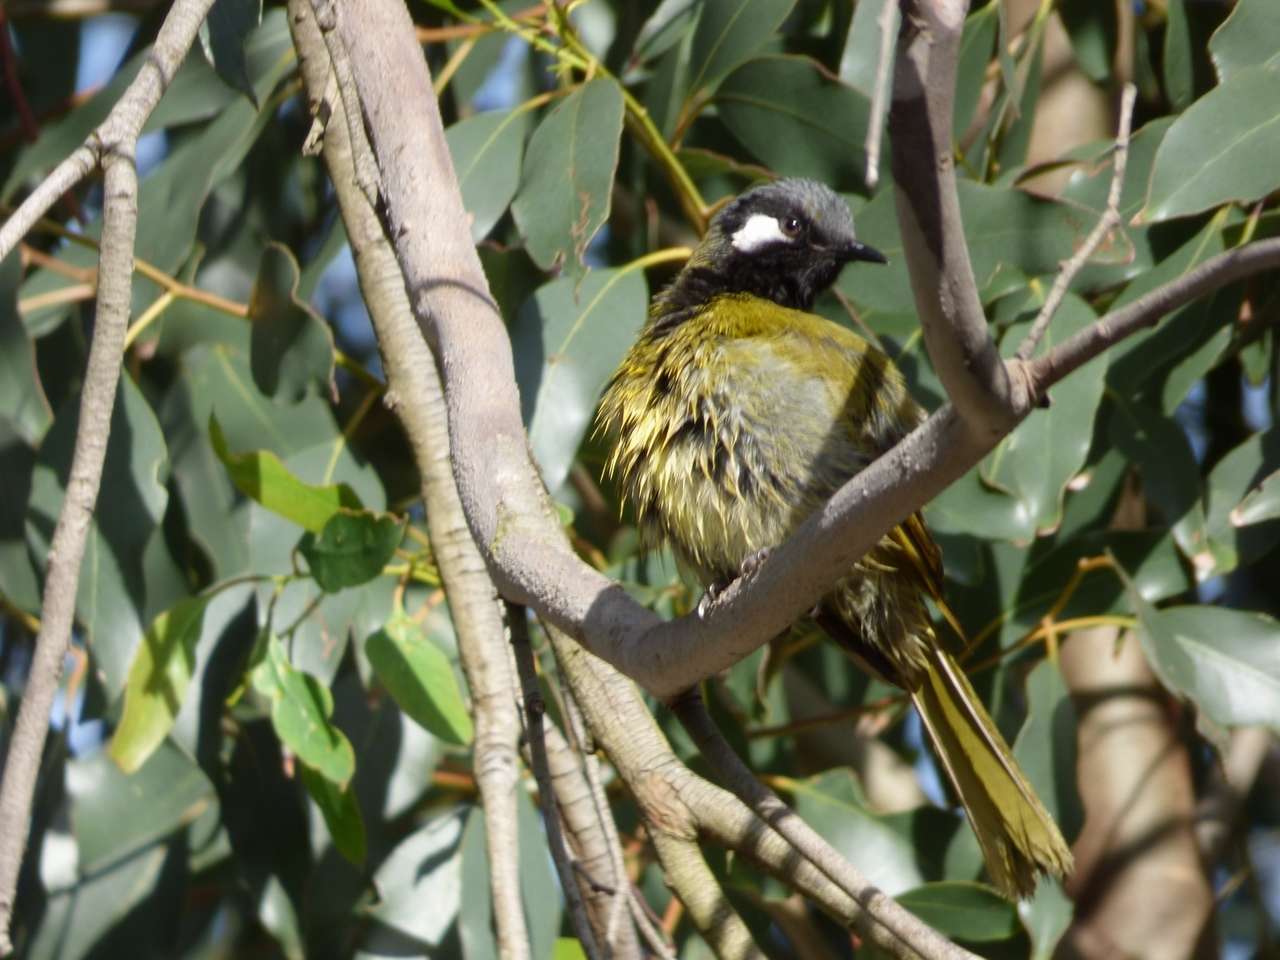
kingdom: Animalia
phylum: Chordata
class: Aves
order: Passeriformes
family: Meliphagidae
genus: Nesoptilotis
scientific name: Nesoptilotis leucotis
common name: White-eared honeyeater
